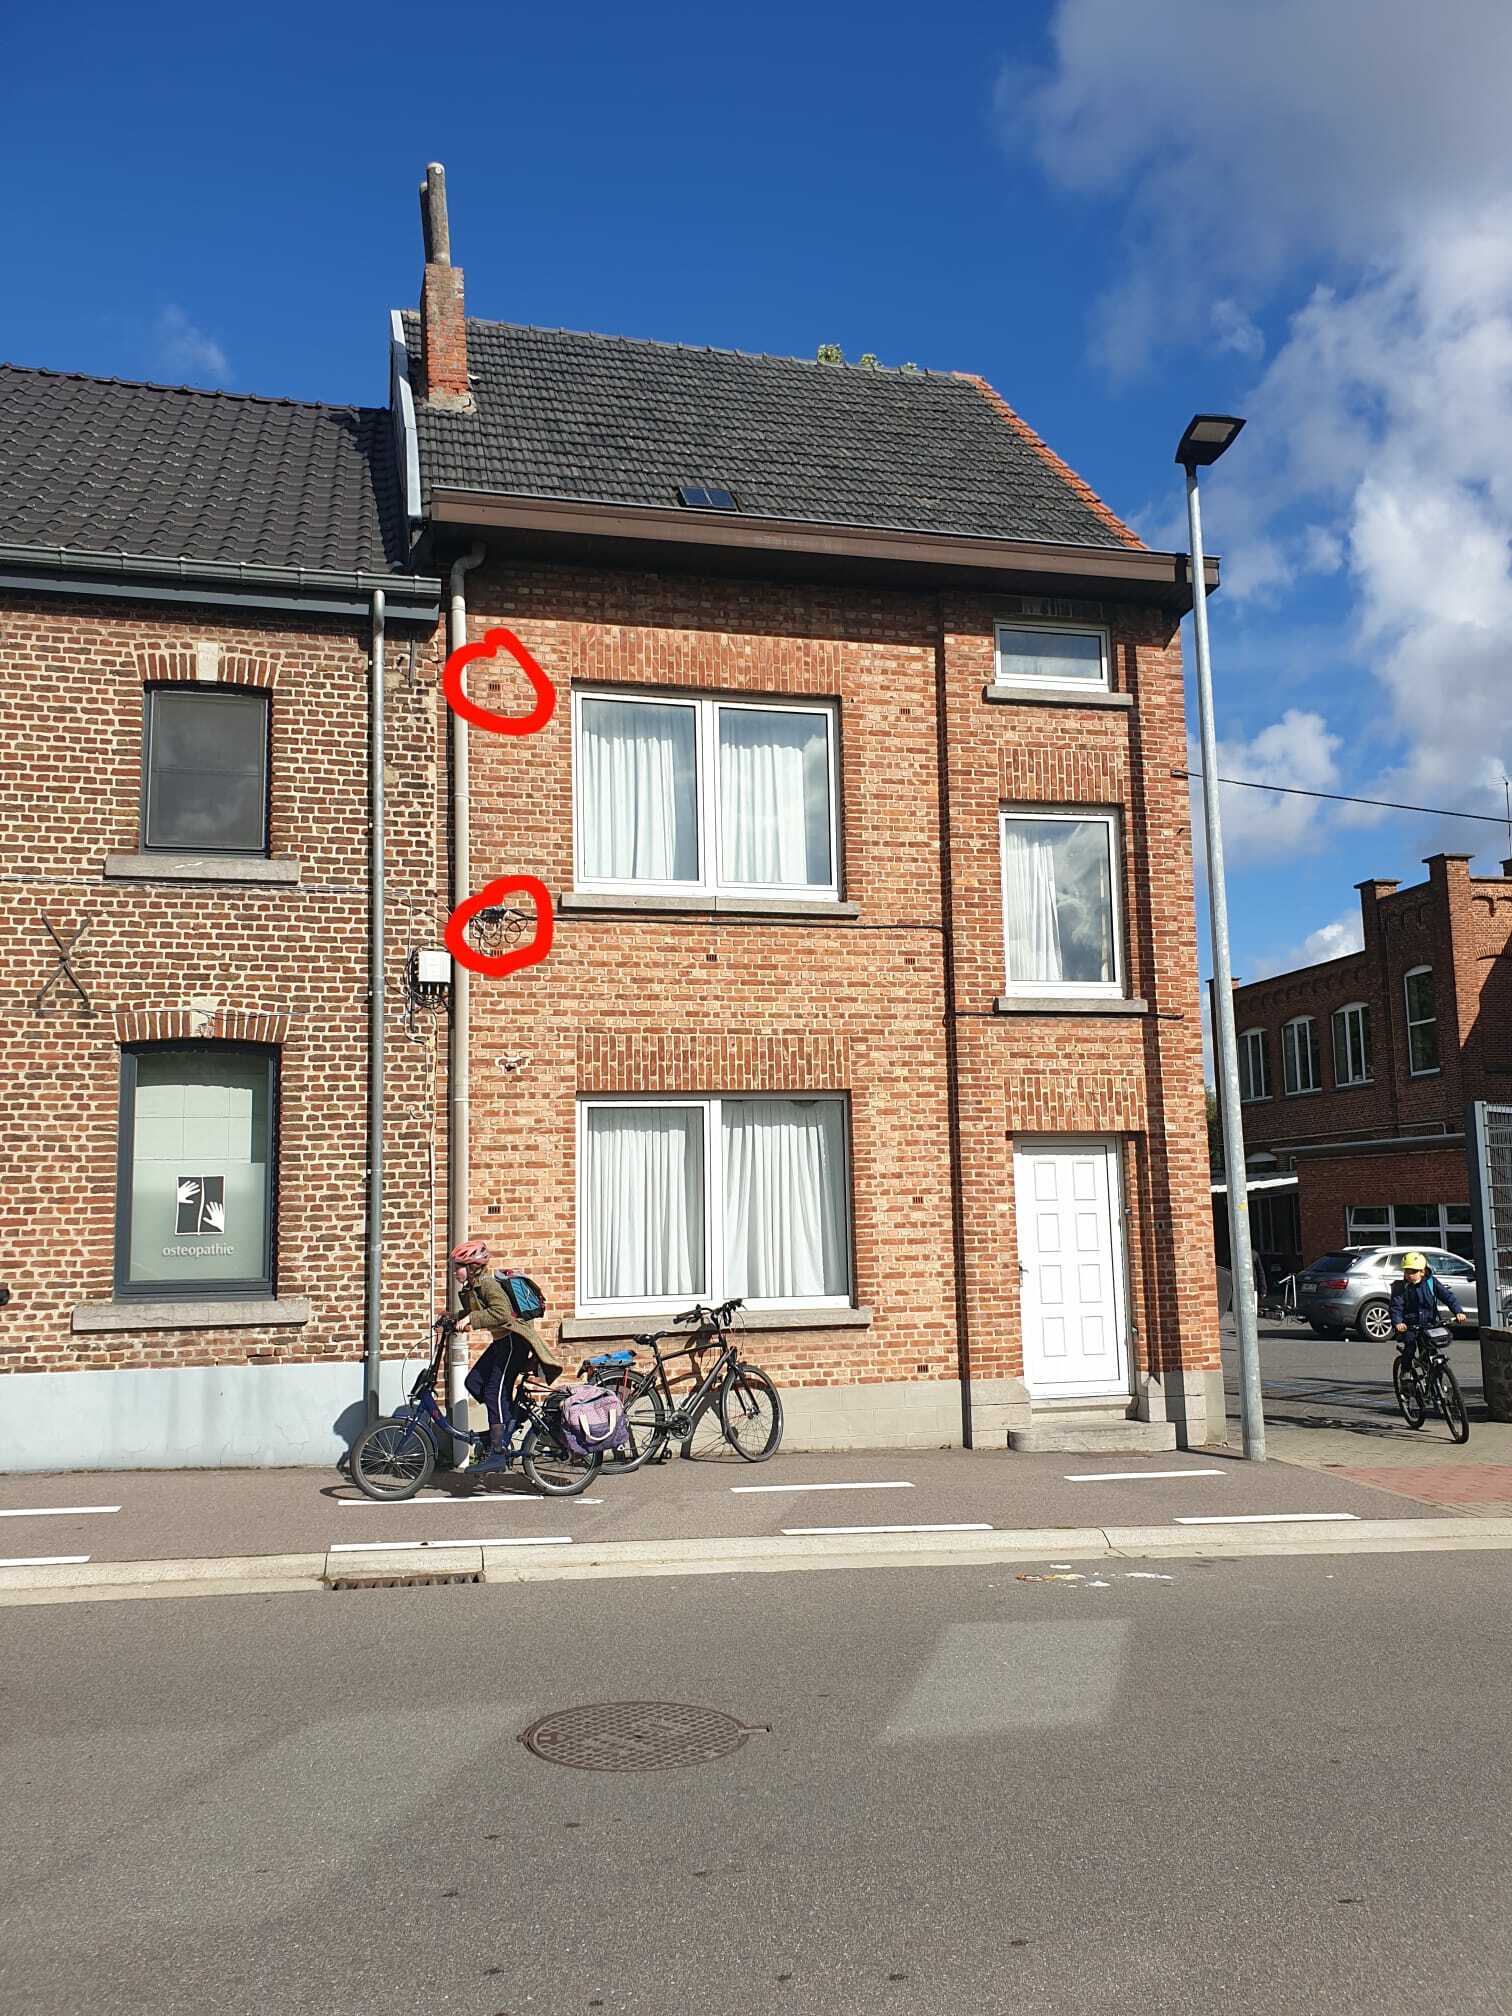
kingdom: Animalia
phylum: Arthropoda
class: Insecta
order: Hymenoptera
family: Vespidae
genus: Vespa
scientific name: Vespa velutina
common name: Asian hornet
